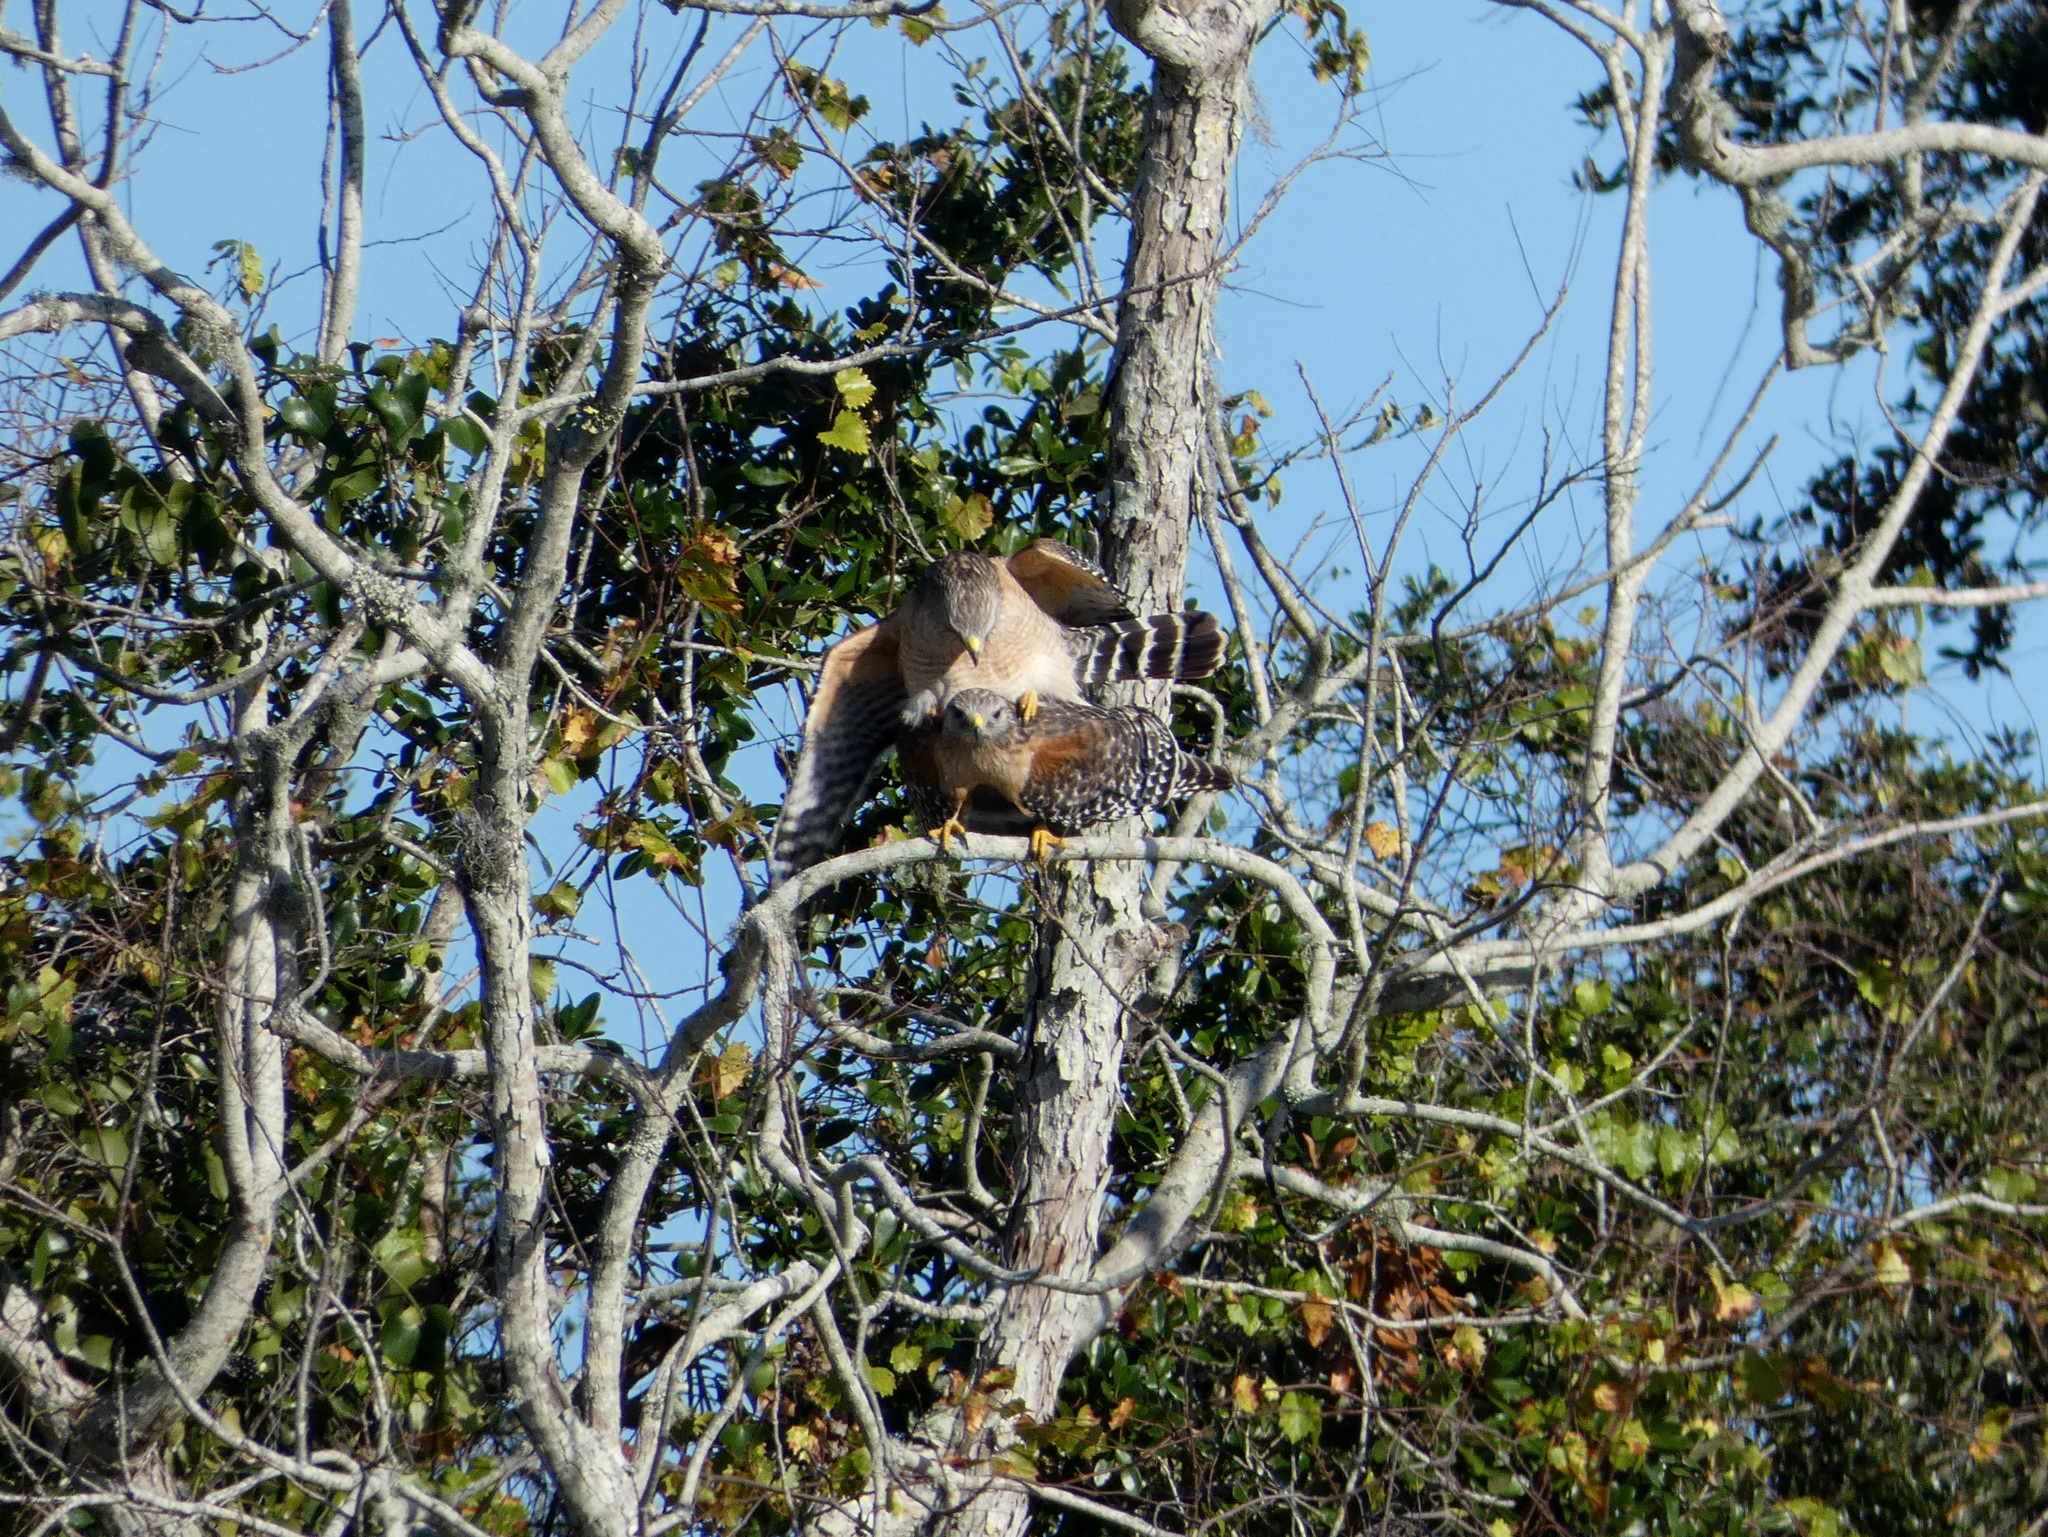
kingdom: Animalia
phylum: Chordata
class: Aves
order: Accipitriformes
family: Accipitridae
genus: Buteo
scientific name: Buteo lineatus
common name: Red-shouldered hawk
